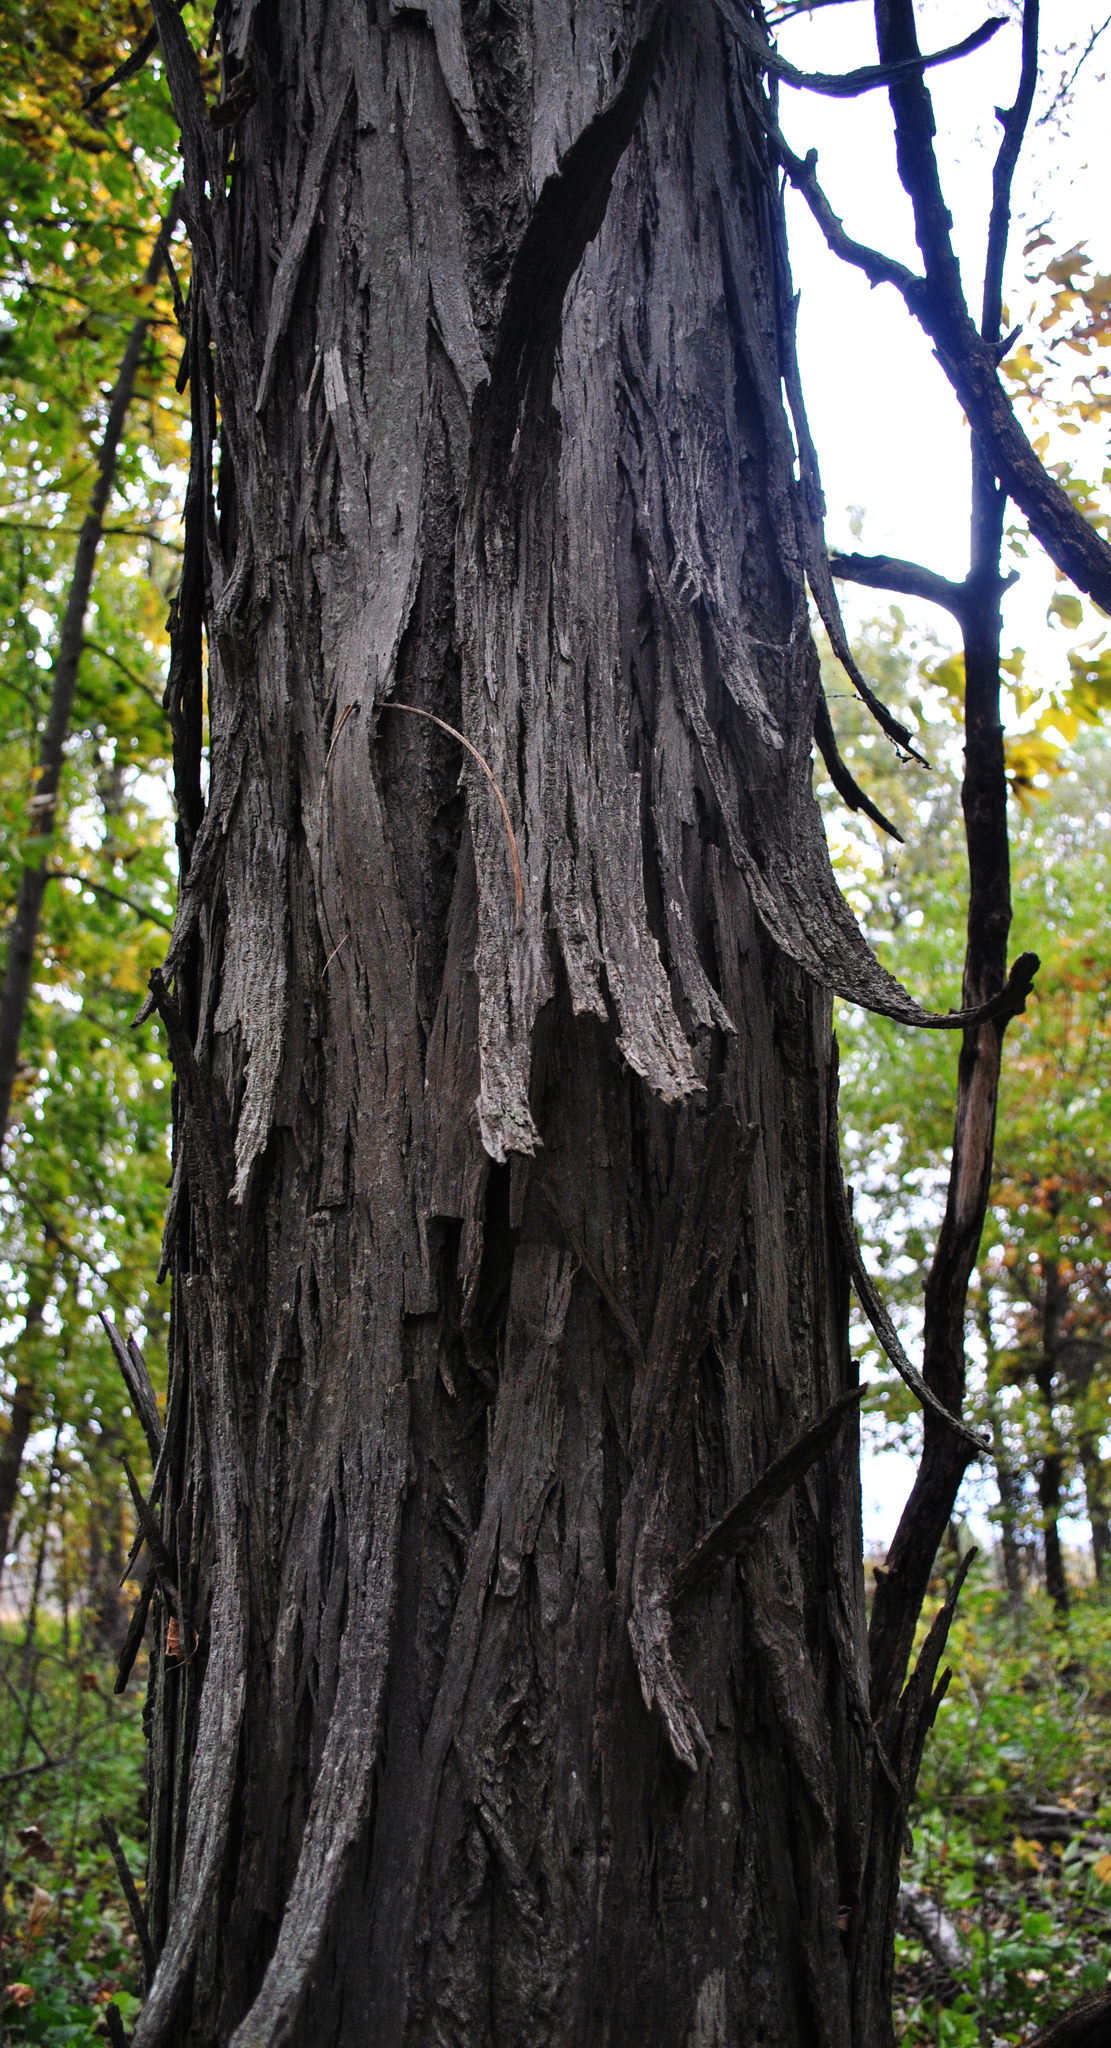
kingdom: Plantae
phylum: Tracheophyta
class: Magnoliopsida
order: Fagales
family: Juglandaceae
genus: Carya
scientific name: Carya ovata
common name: Shagbark hickory
